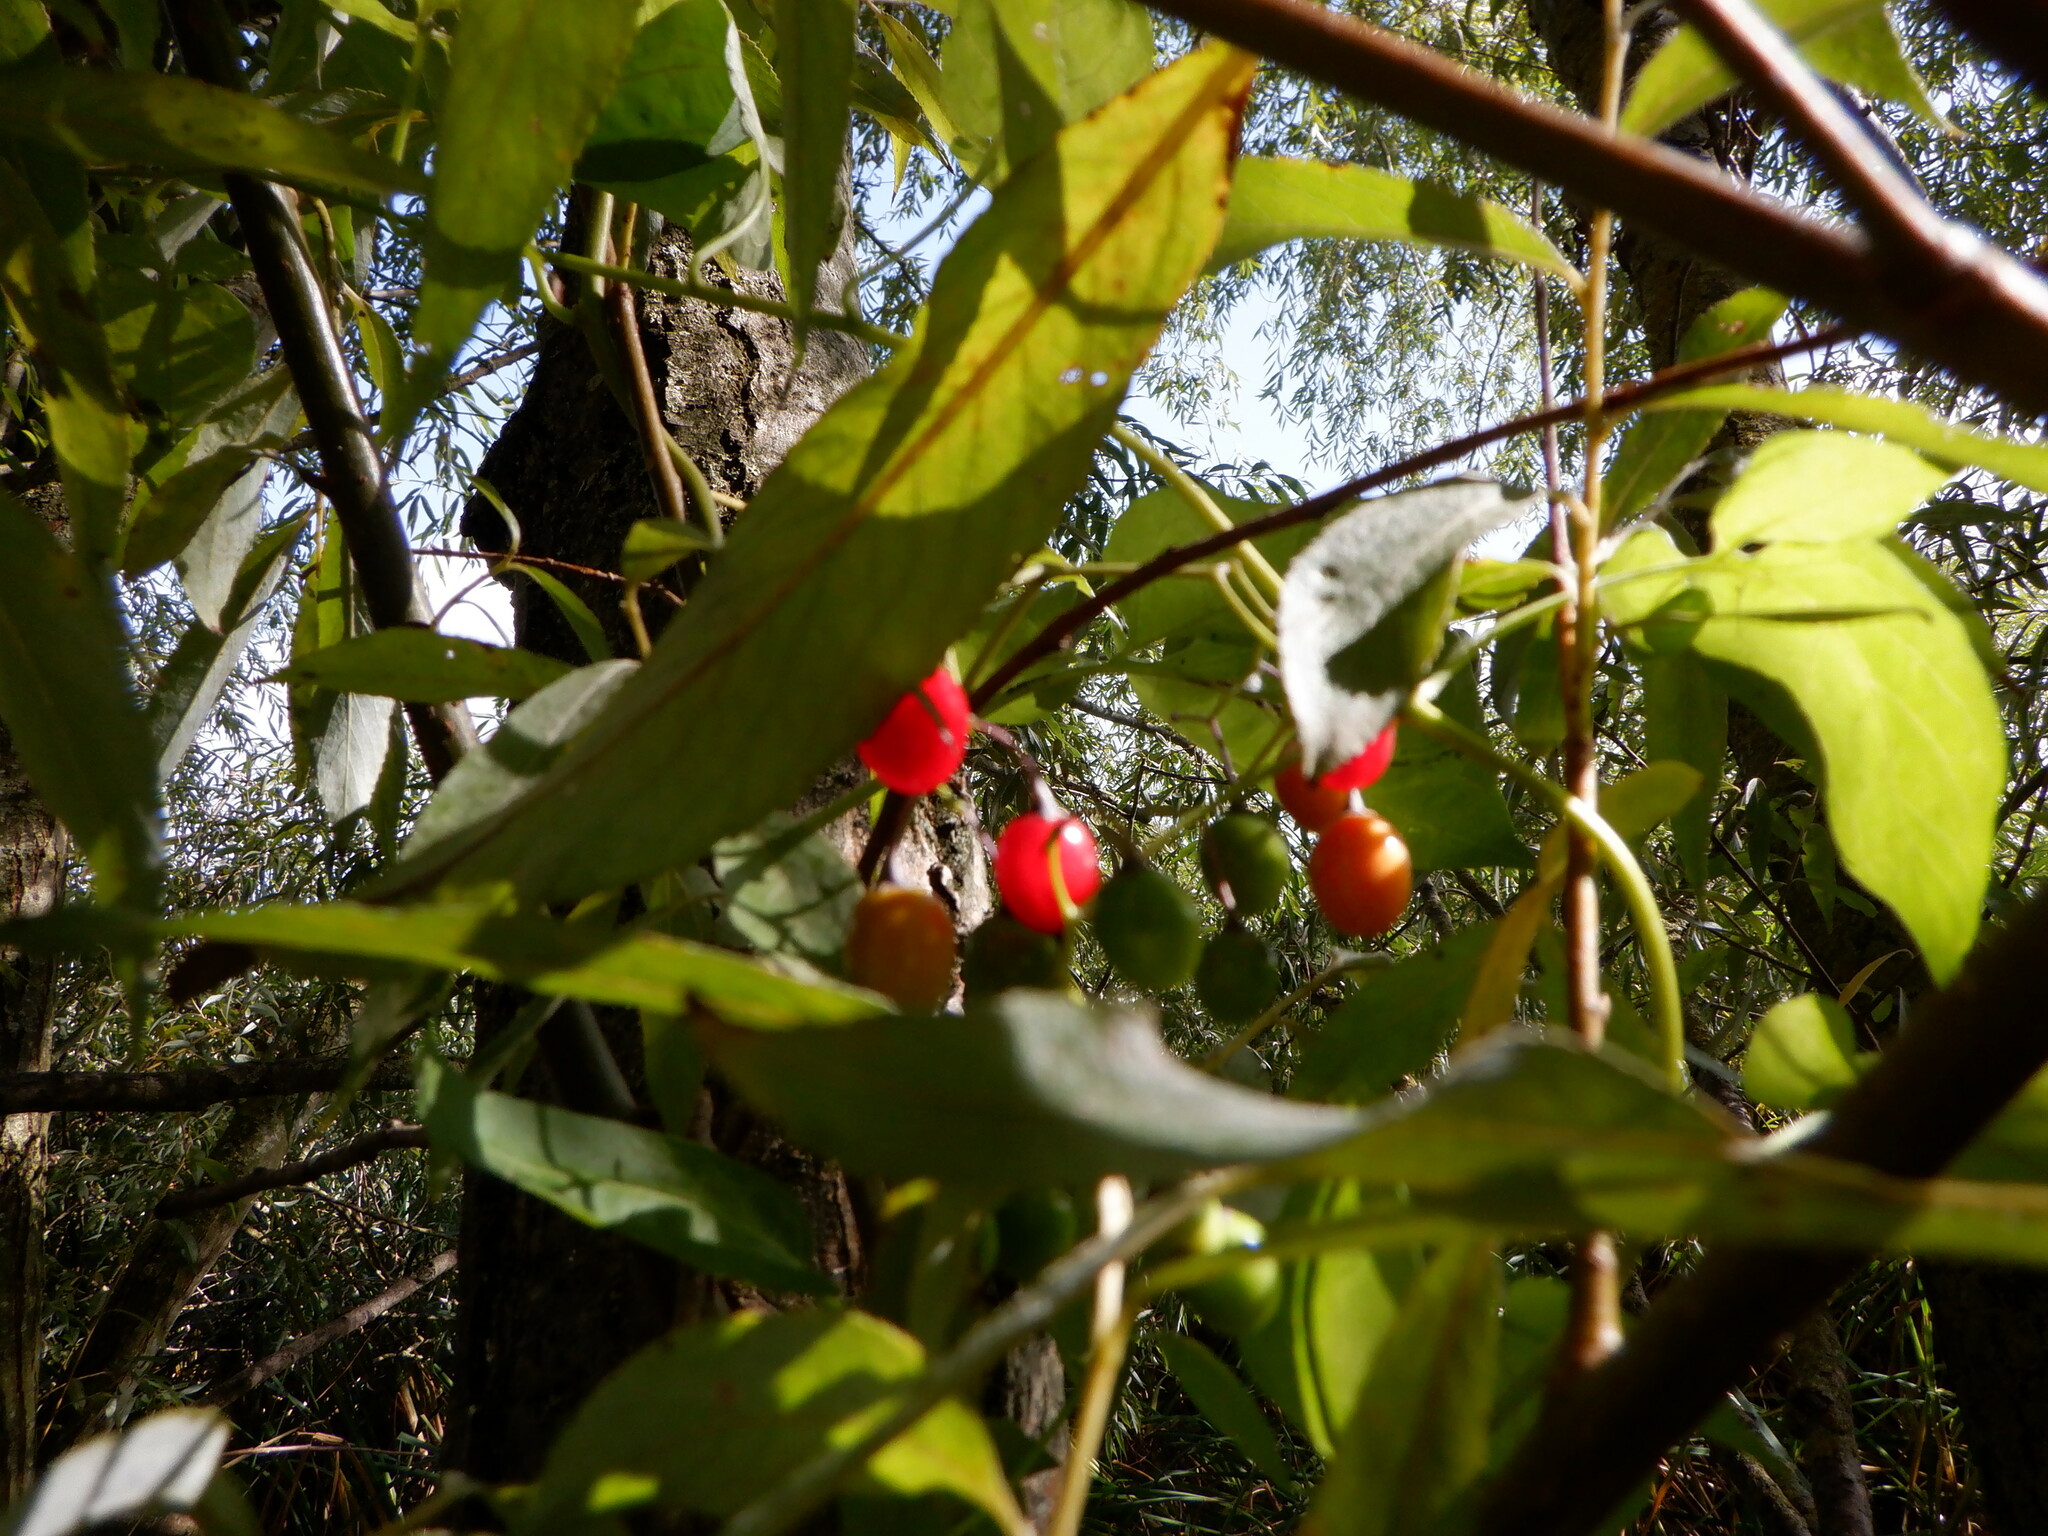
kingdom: Plantae
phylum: Tracheophyta
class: Magnoliopsida
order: Solanales
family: Solanaceae
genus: Solanum
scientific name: Solanum dulcamara
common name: Climbing nightshade
